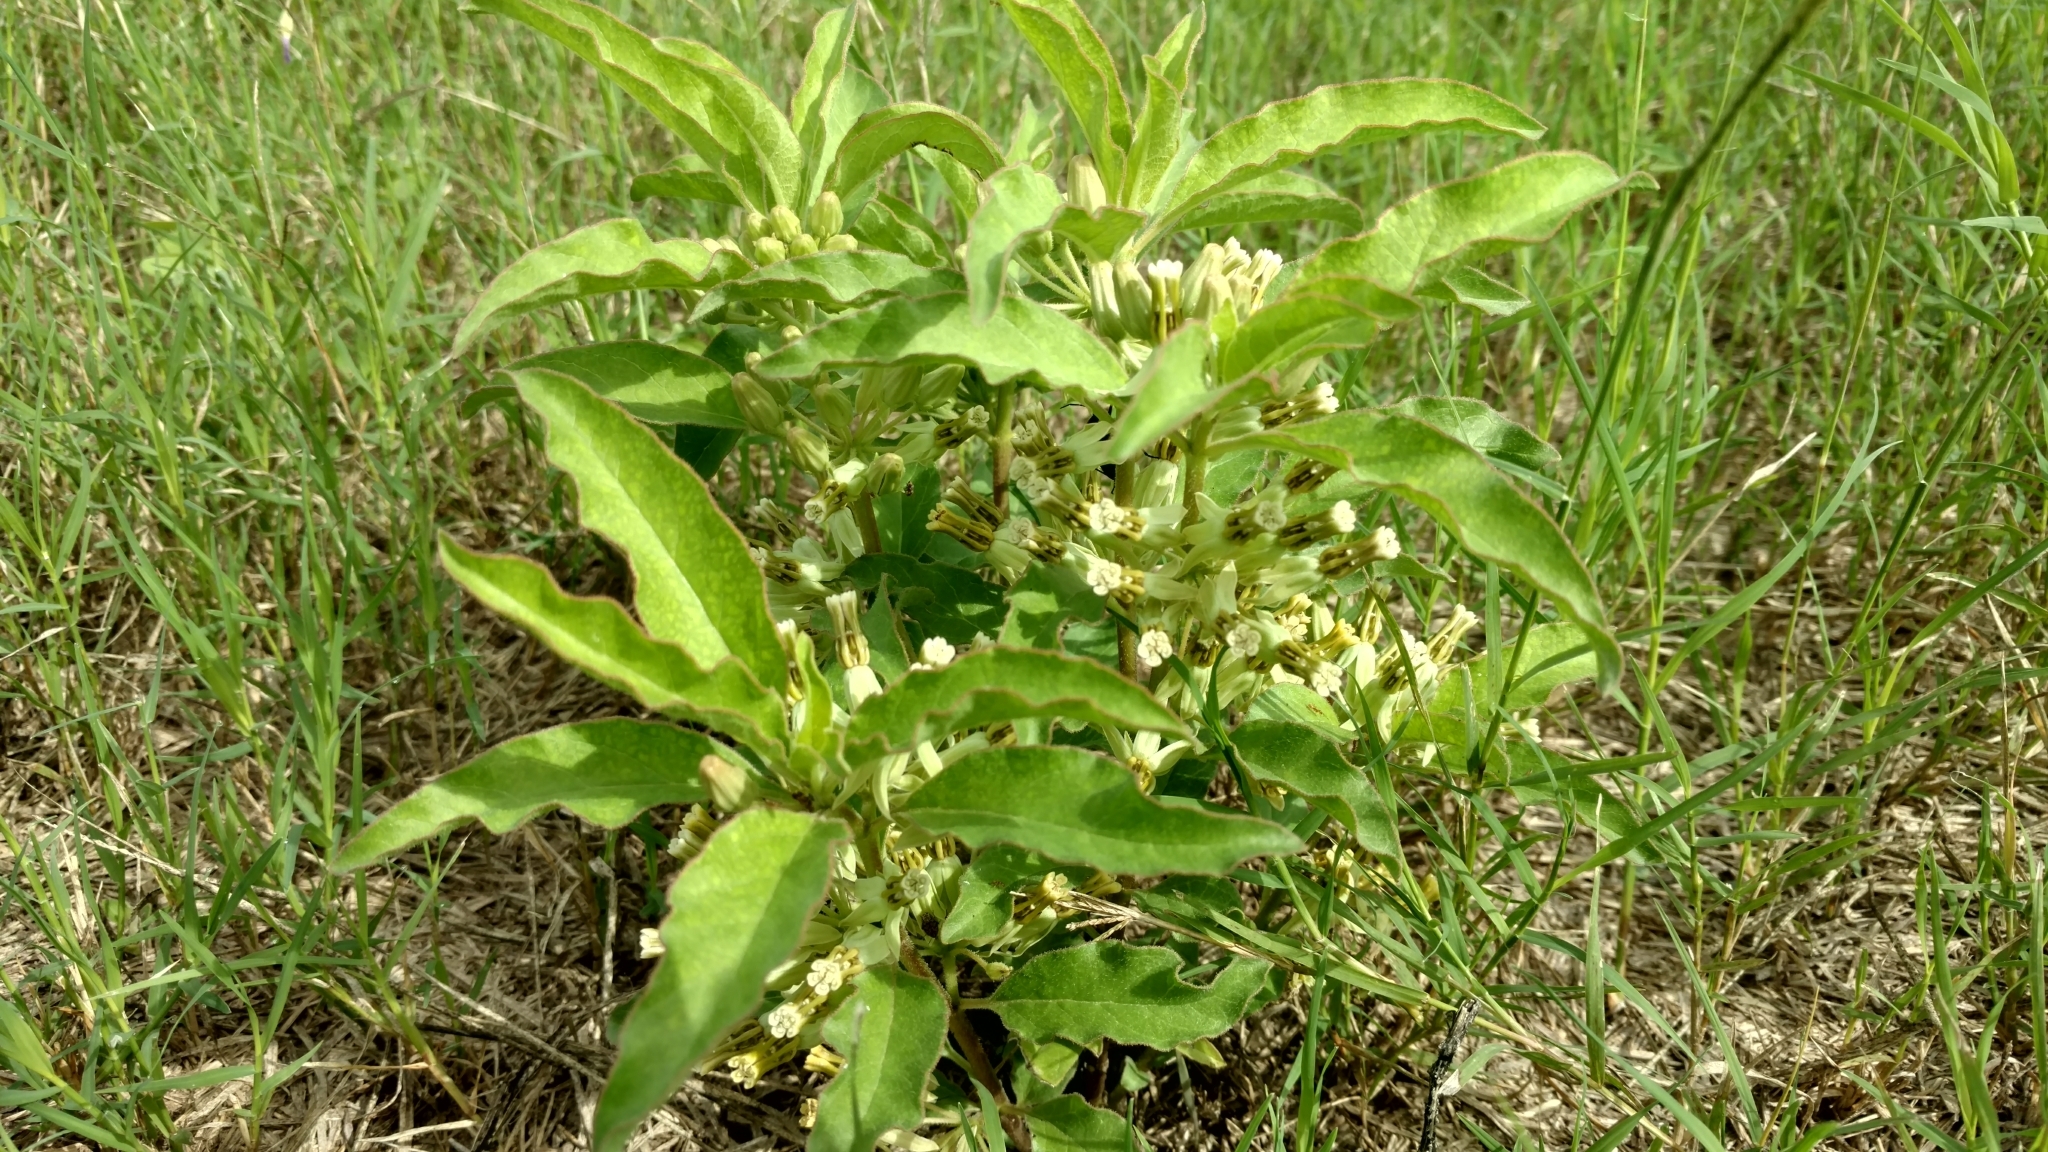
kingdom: Plantae
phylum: Tracheophyta
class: Magnoliopsida
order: Gentianales
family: Apocynaceae
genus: Asclepias
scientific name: Asclepias oenotheroides
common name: Zizotes milkweed
